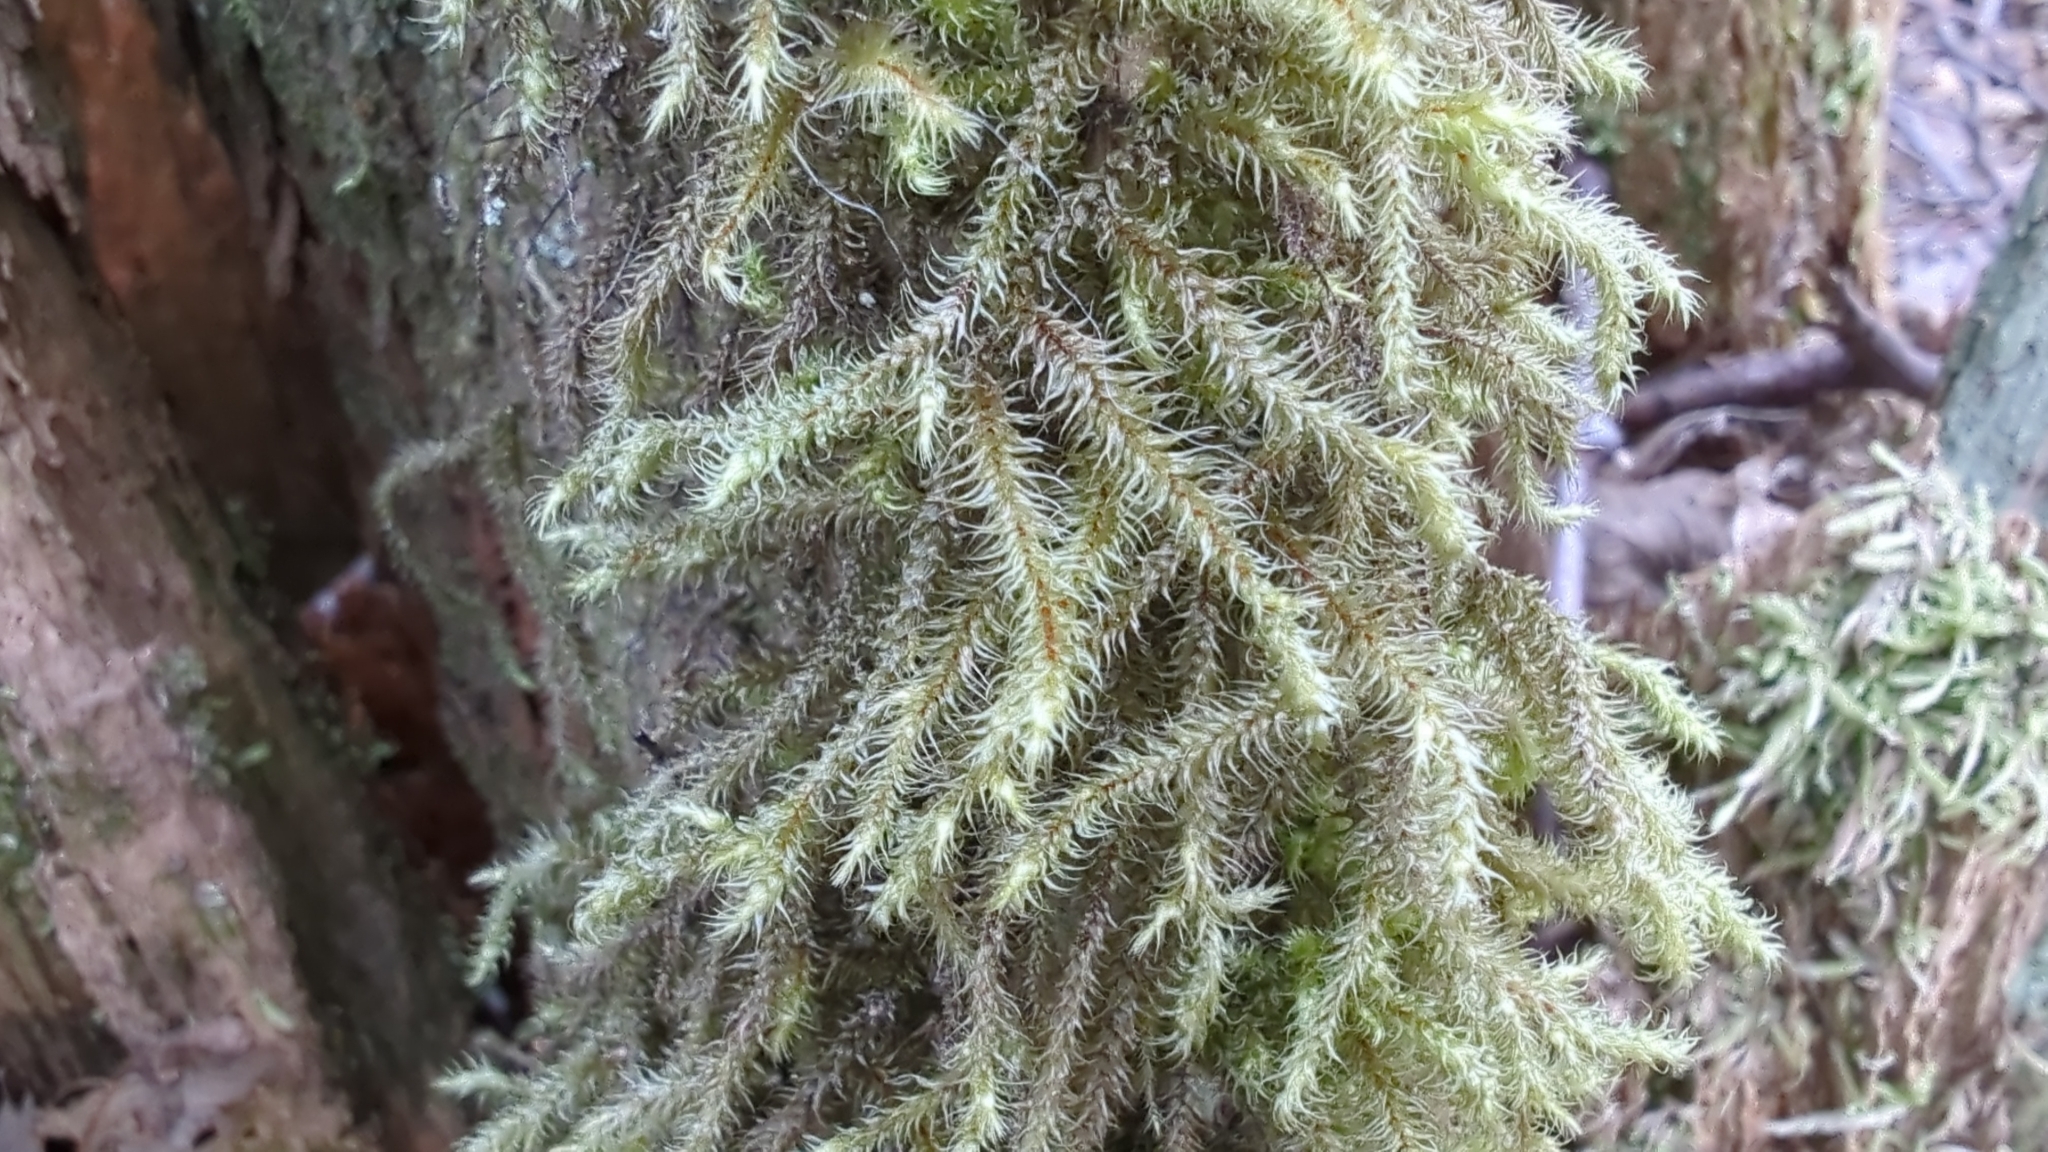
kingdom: Plantae
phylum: Bryophyta
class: Bryopsida
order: Hypnales
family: Hylocomiaceae
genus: Rhytidiadelphus
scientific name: Rhytidiadelphus loreus
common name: Lanky moss
